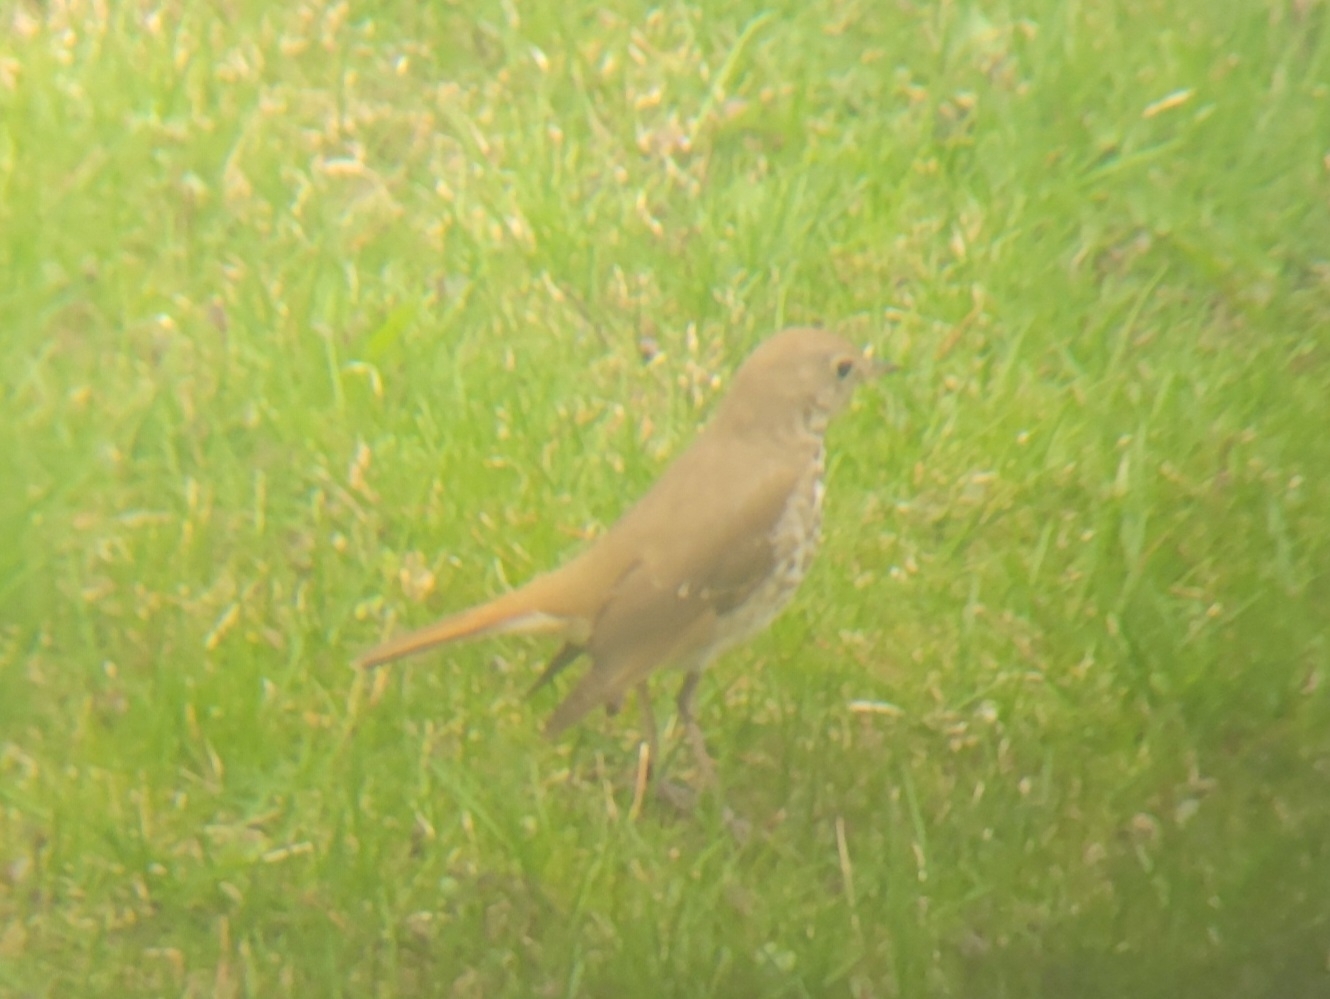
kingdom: Animalia
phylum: Chordata
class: Aves
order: Passeriformes
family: Turdidae
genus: Catharus
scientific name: Catharus guttatus
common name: Hermit thrush
